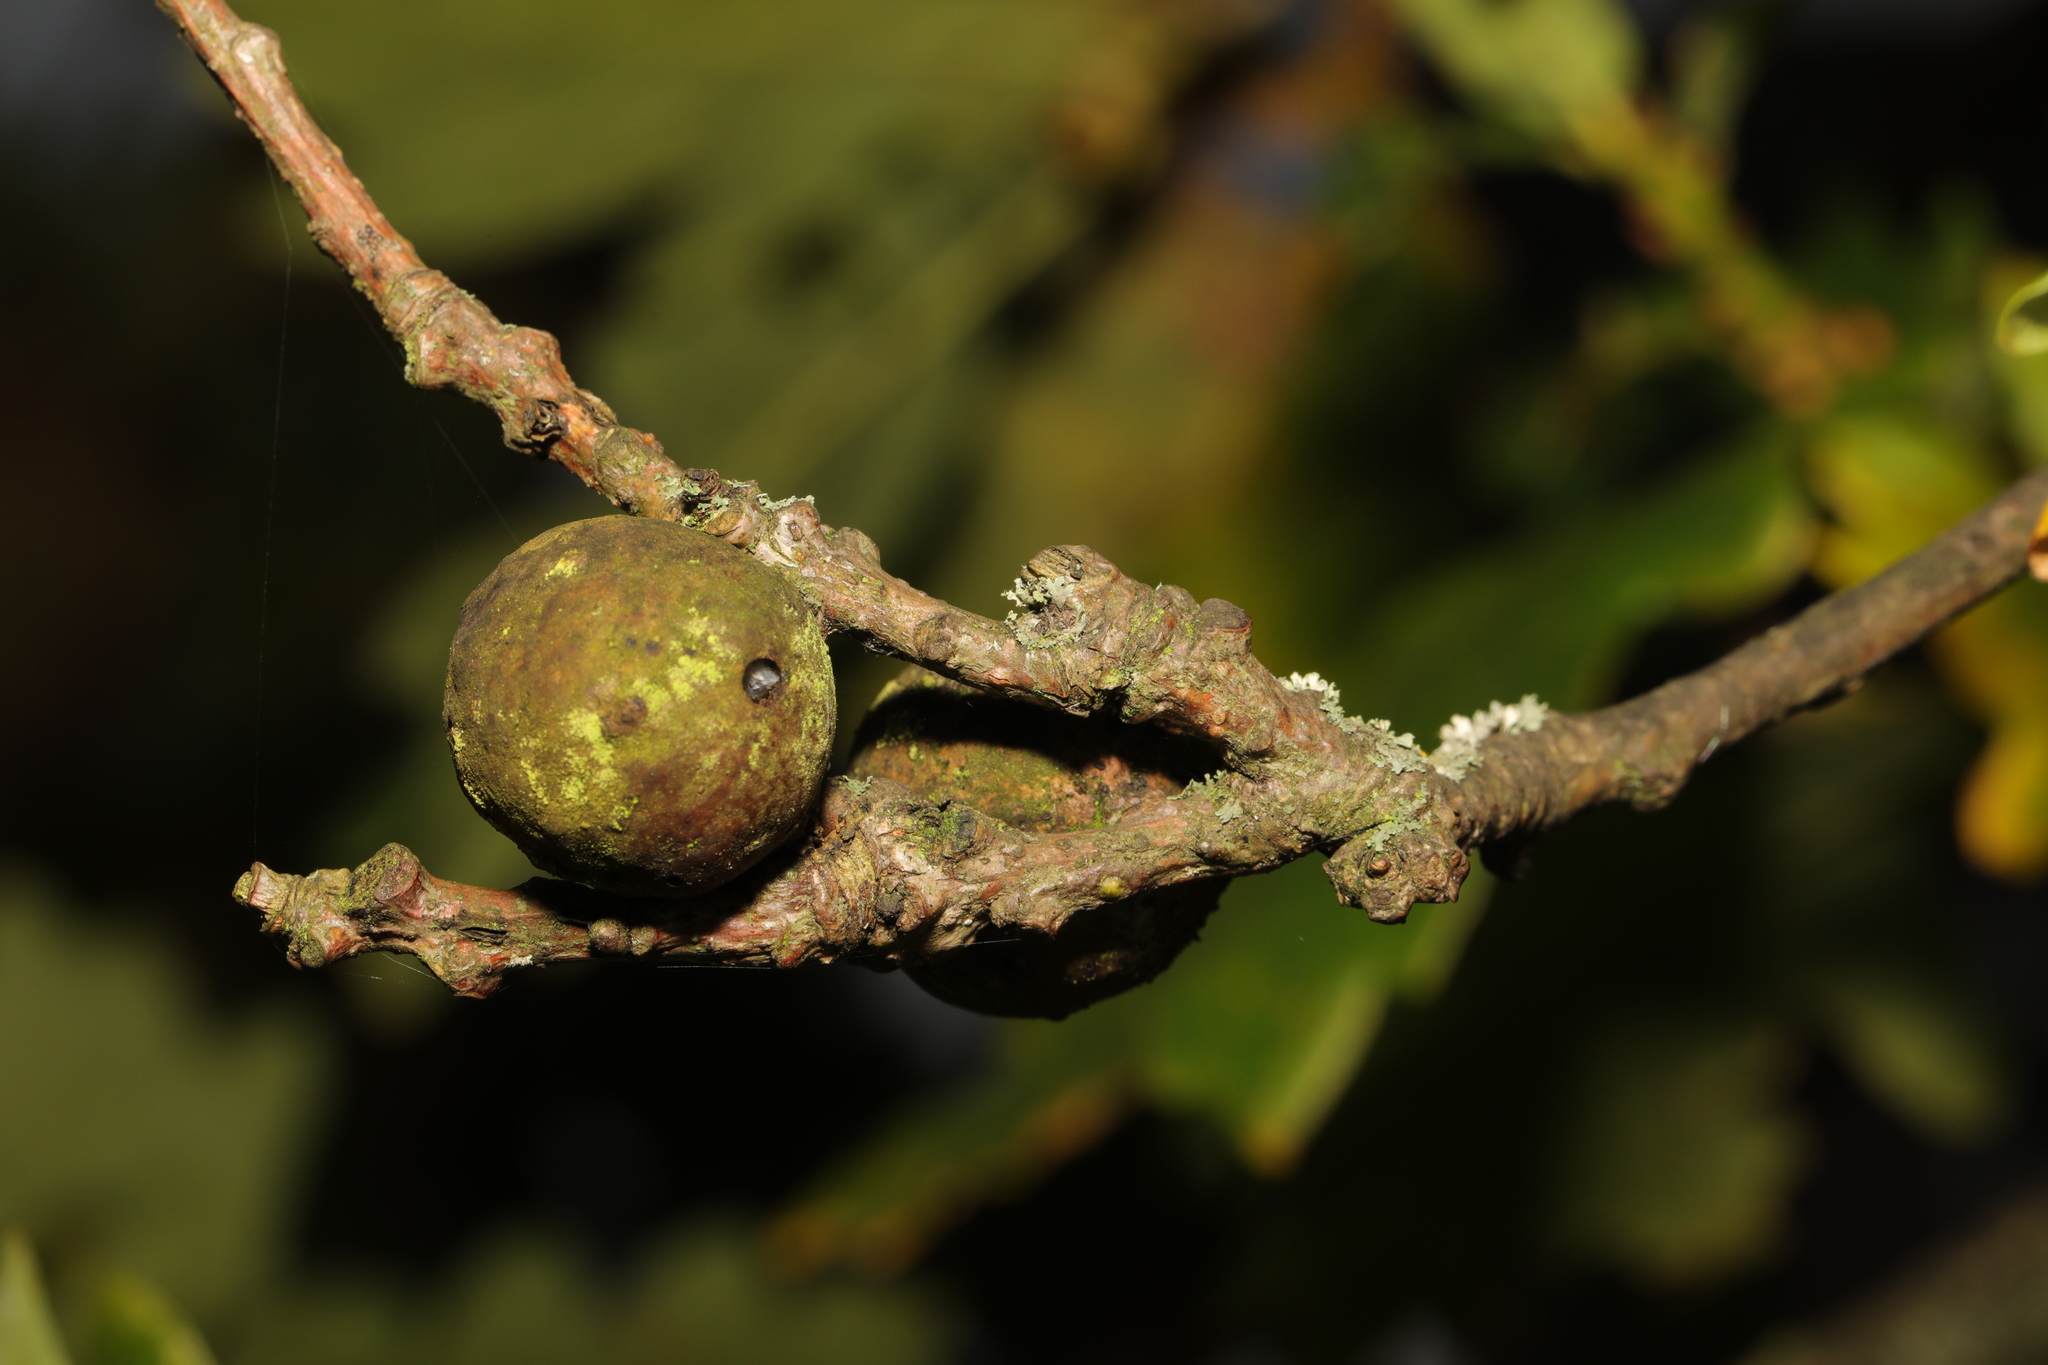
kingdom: Animalia
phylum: Arthropoda
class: Insecta
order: Hymenoptera
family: Cynipidae
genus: Andricus
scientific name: Andricus kollari
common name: Marble gall
